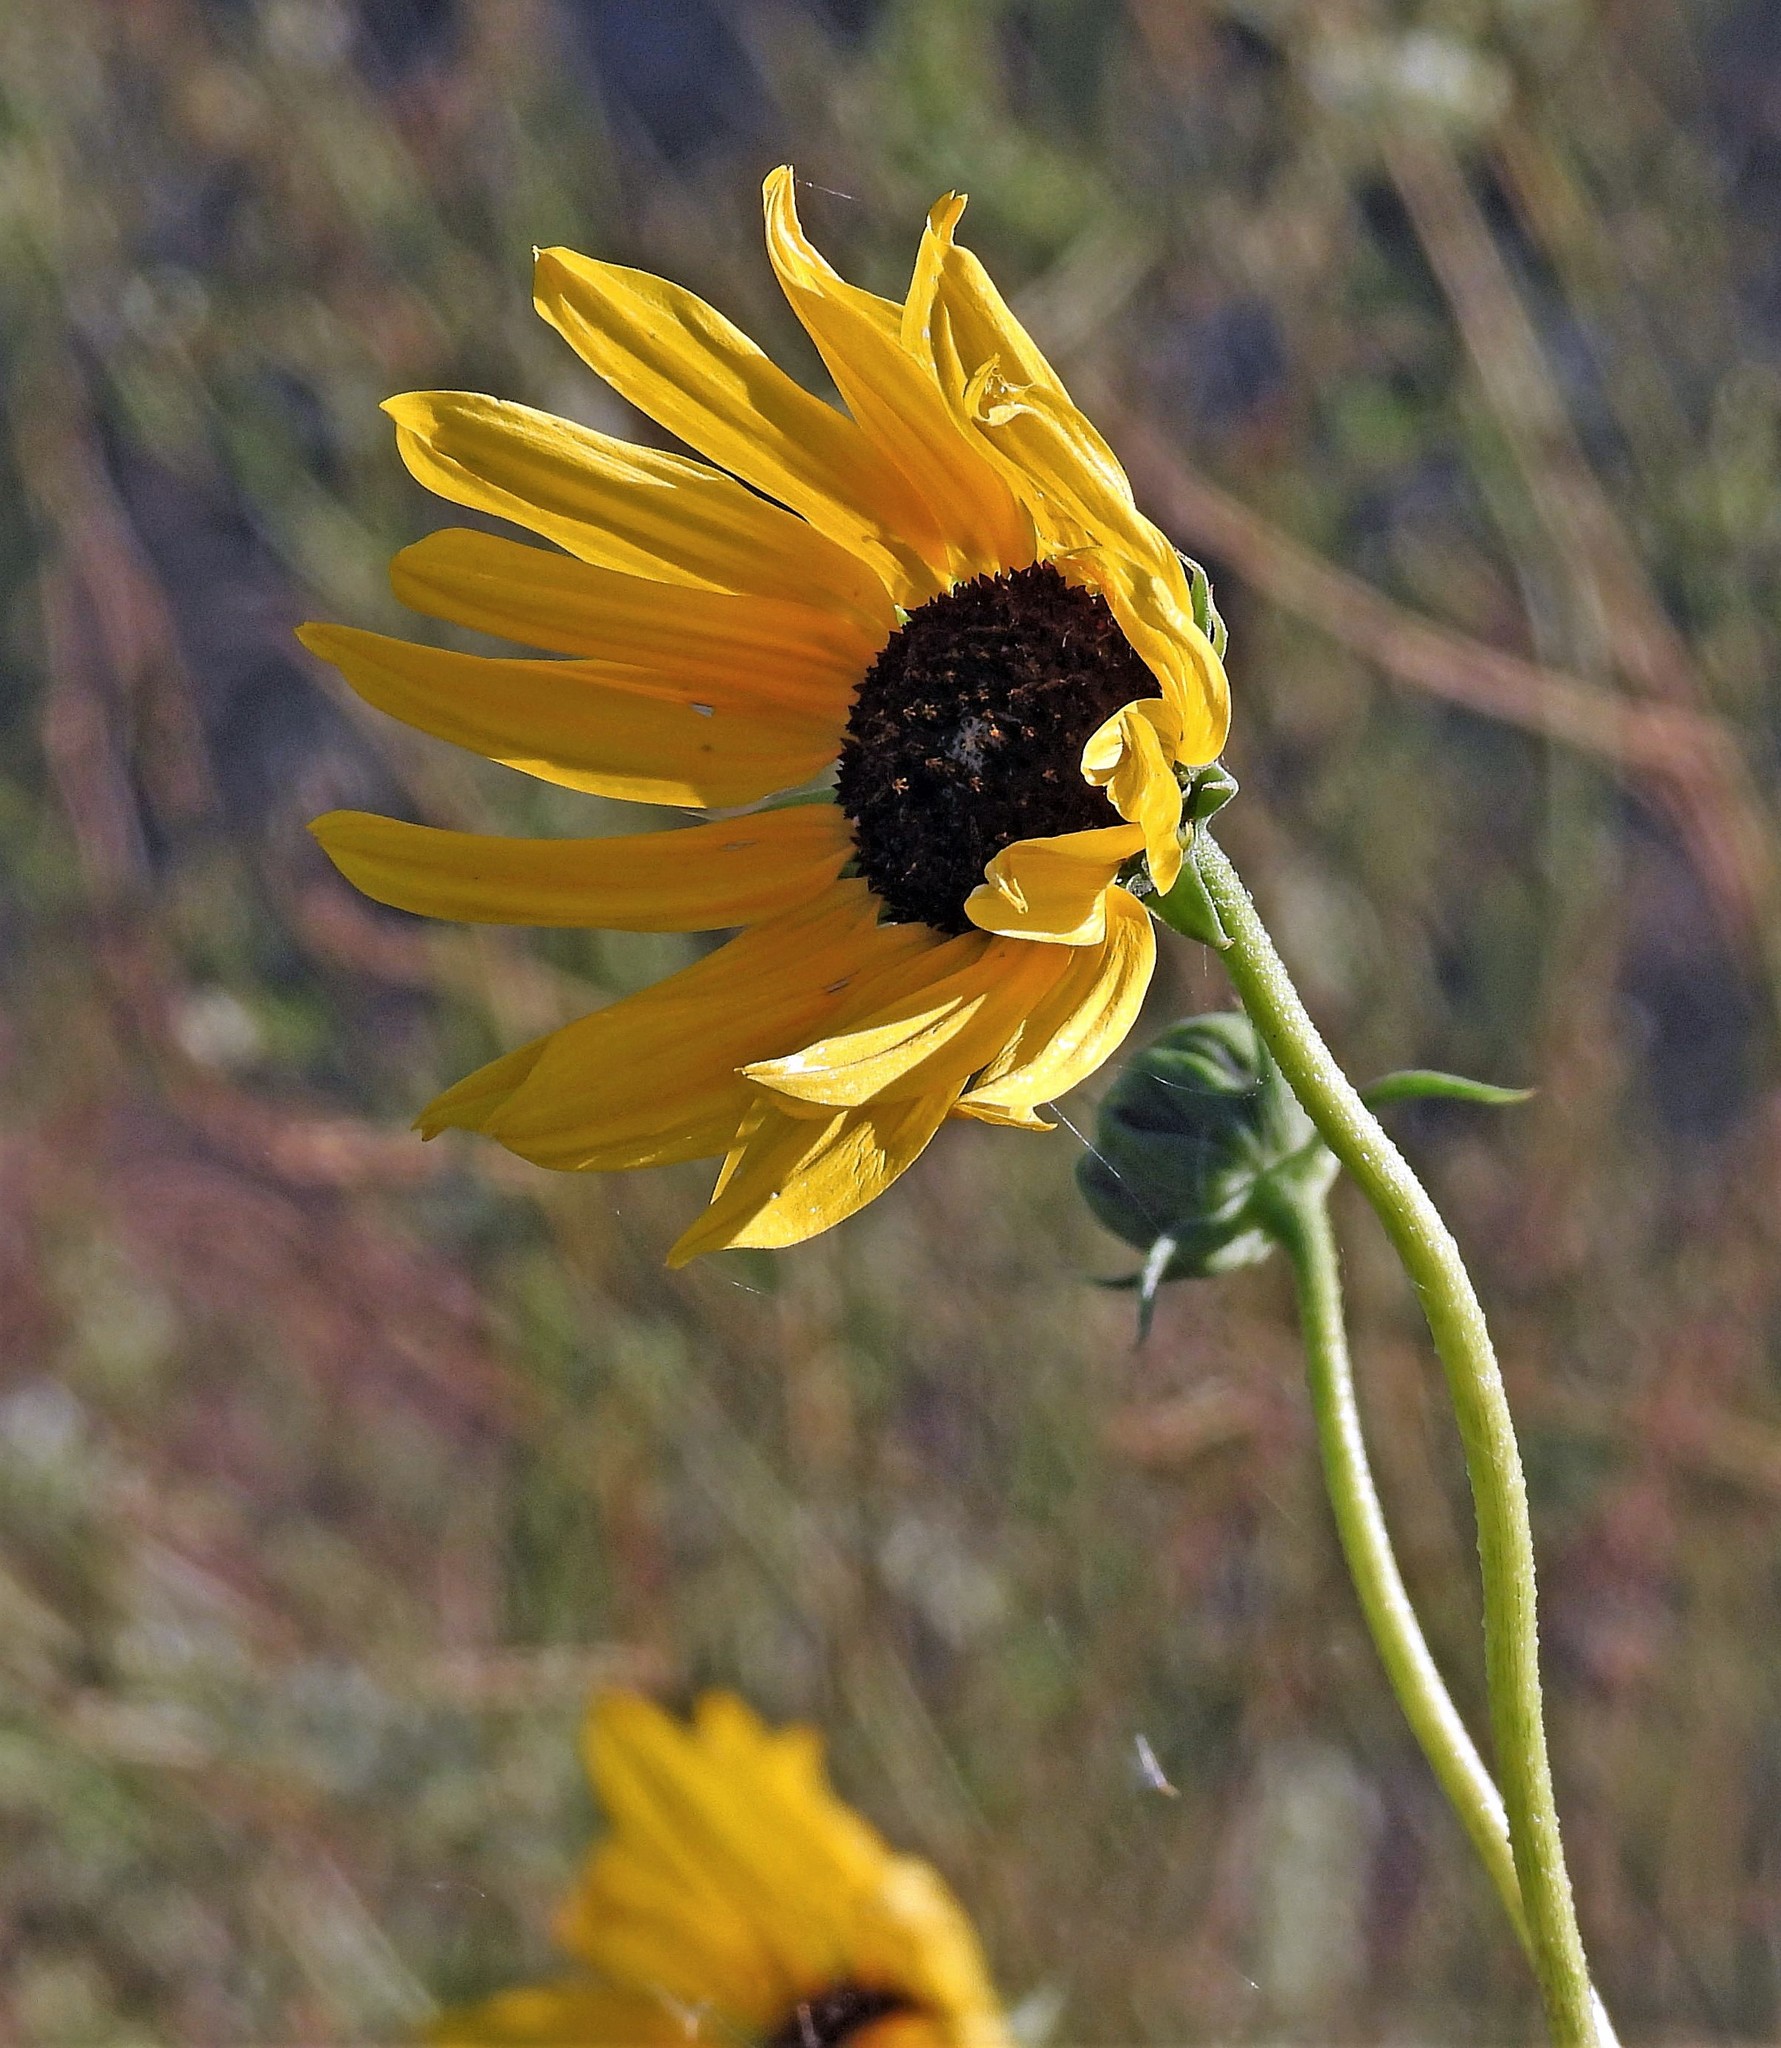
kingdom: Plantae
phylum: Tracheophyta
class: Magnoliopsida
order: Asterales
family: Asteraceae
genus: Helianthus
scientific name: Helianthus petiolaris
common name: Lesser sunflower
